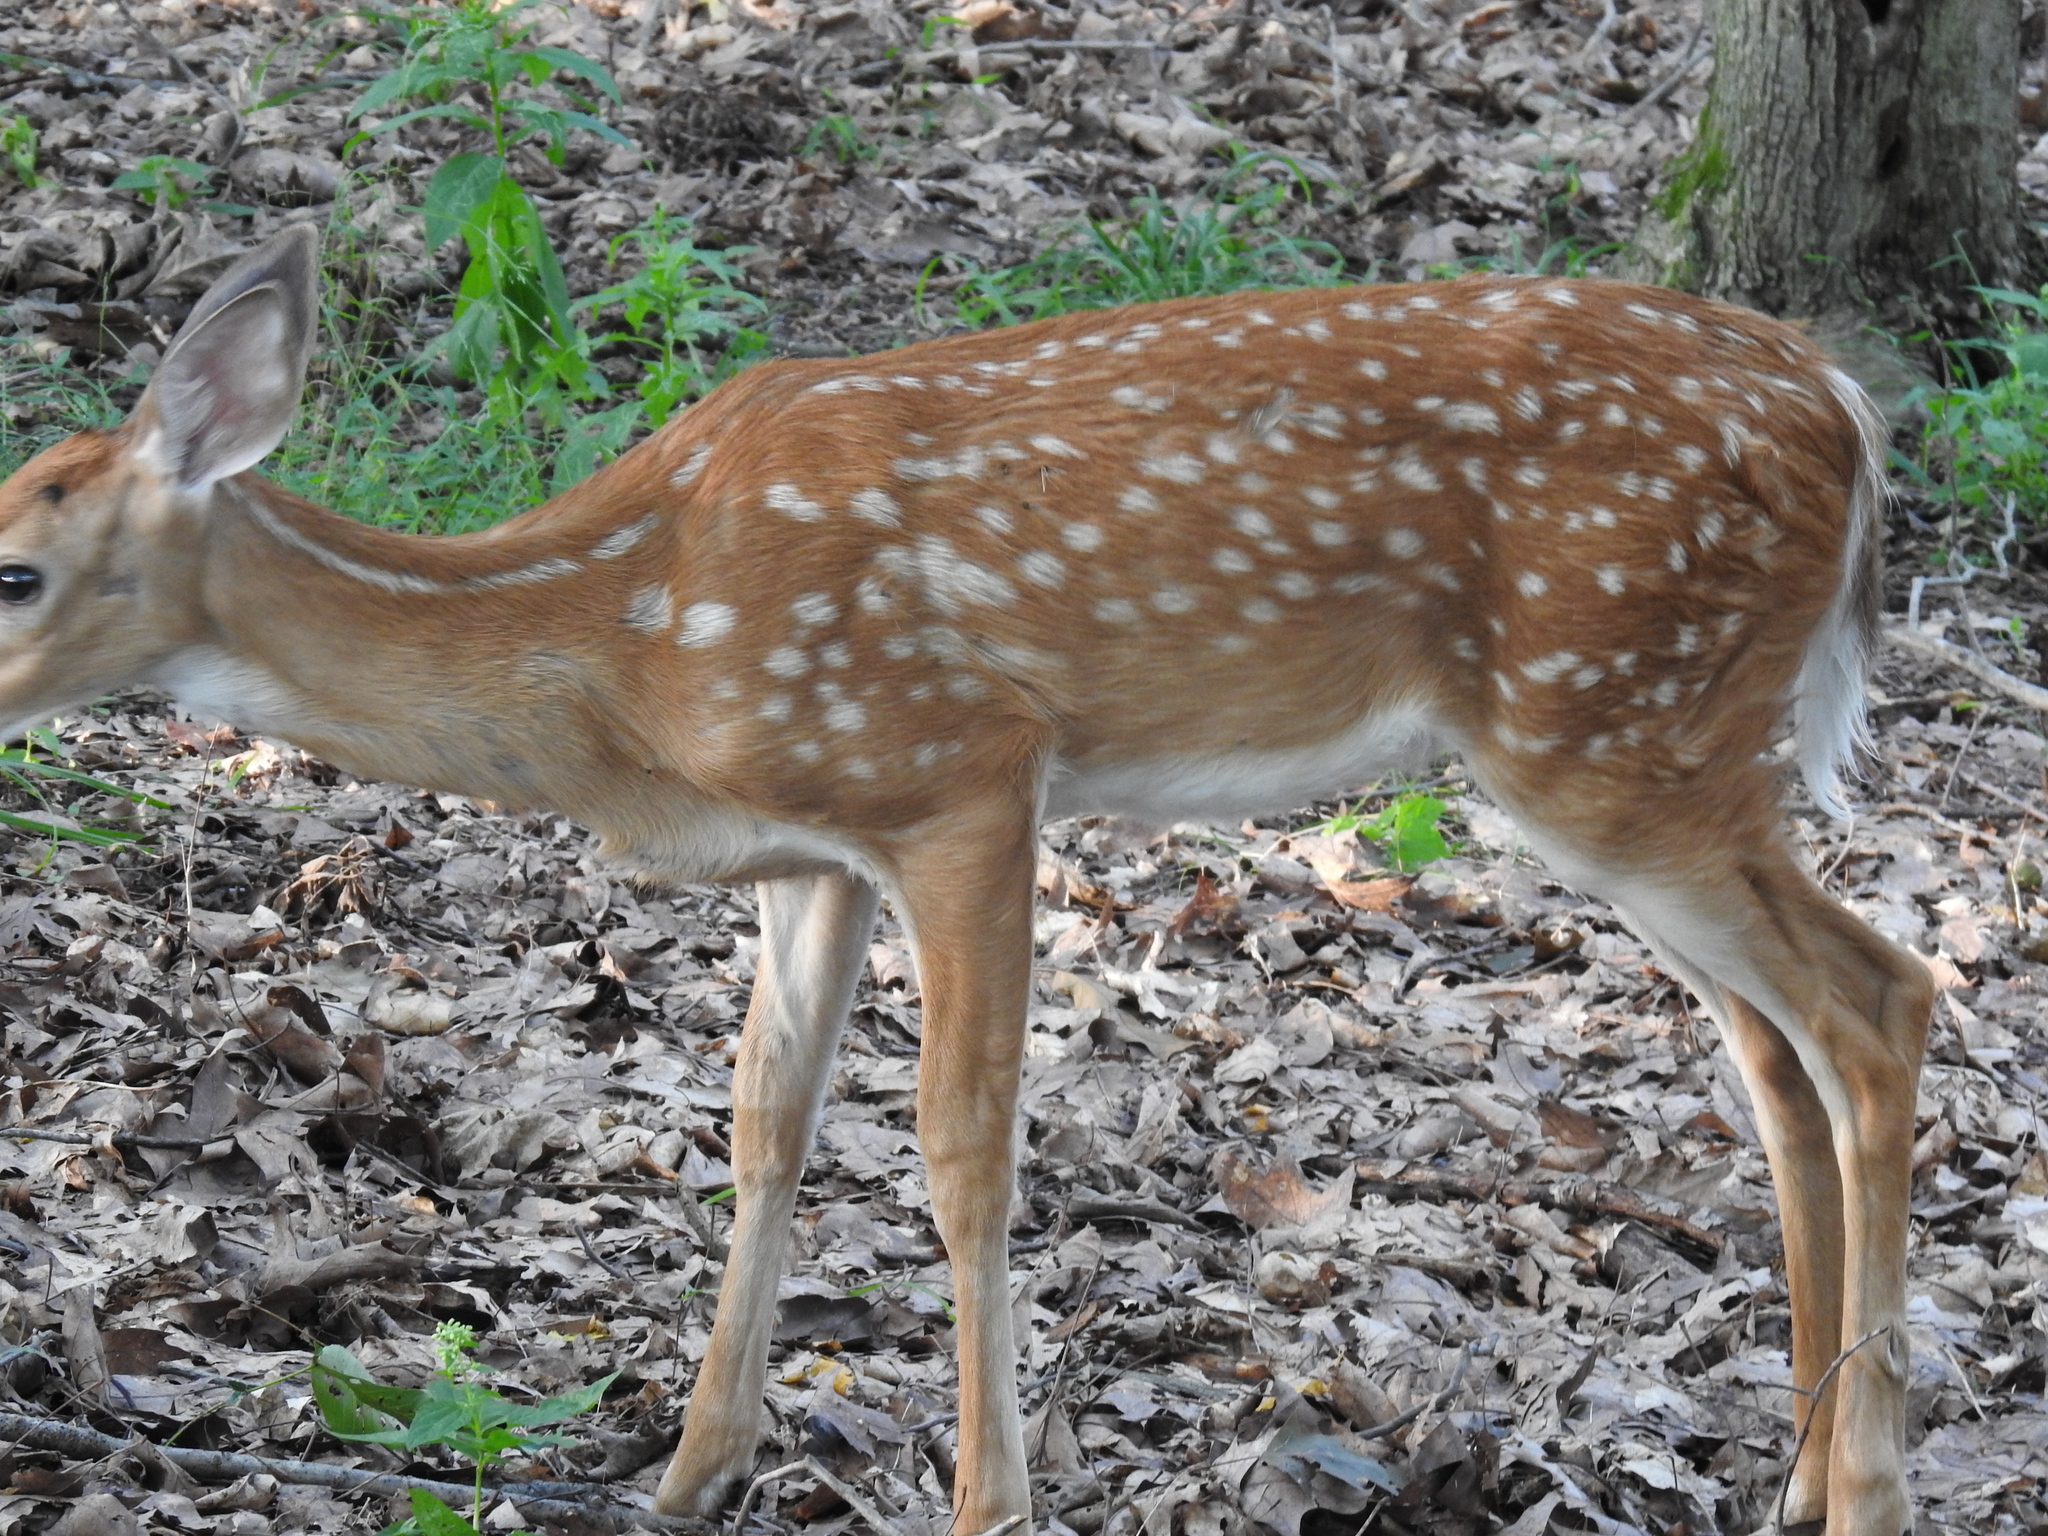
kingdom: Animalia
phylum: Chordata
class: Mammalia
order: Artiodactyla
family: Cervidae
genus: Odocoileus
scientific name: Odocoileus virginianus
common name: White-tailed deer
